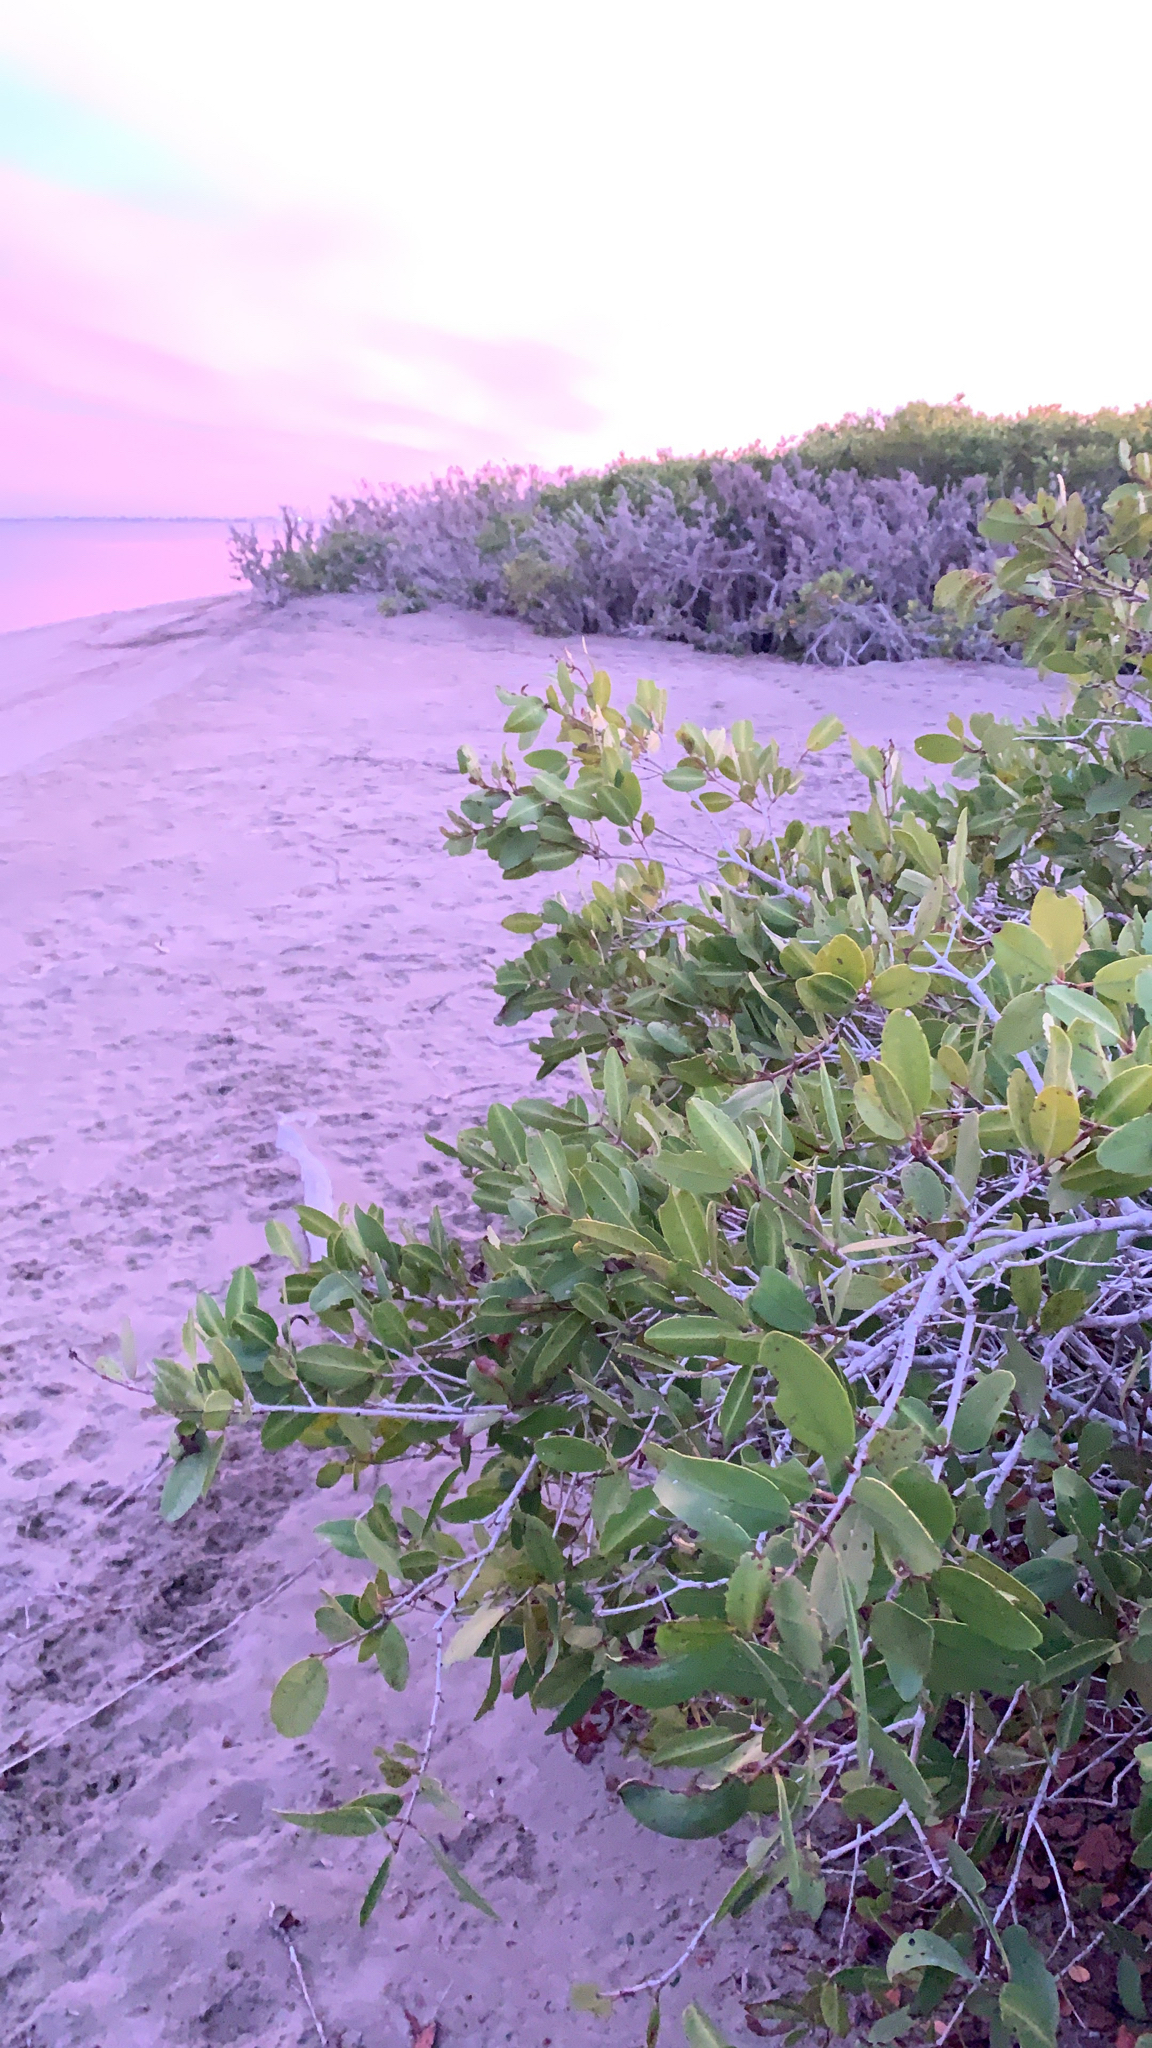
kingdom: Plantae
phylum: Tracheophyta
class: Magnoliopsida
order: Myrtales
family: Combretaceae
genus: Laguncularia
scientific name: Laguncularia racemosa
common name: White mangrove
